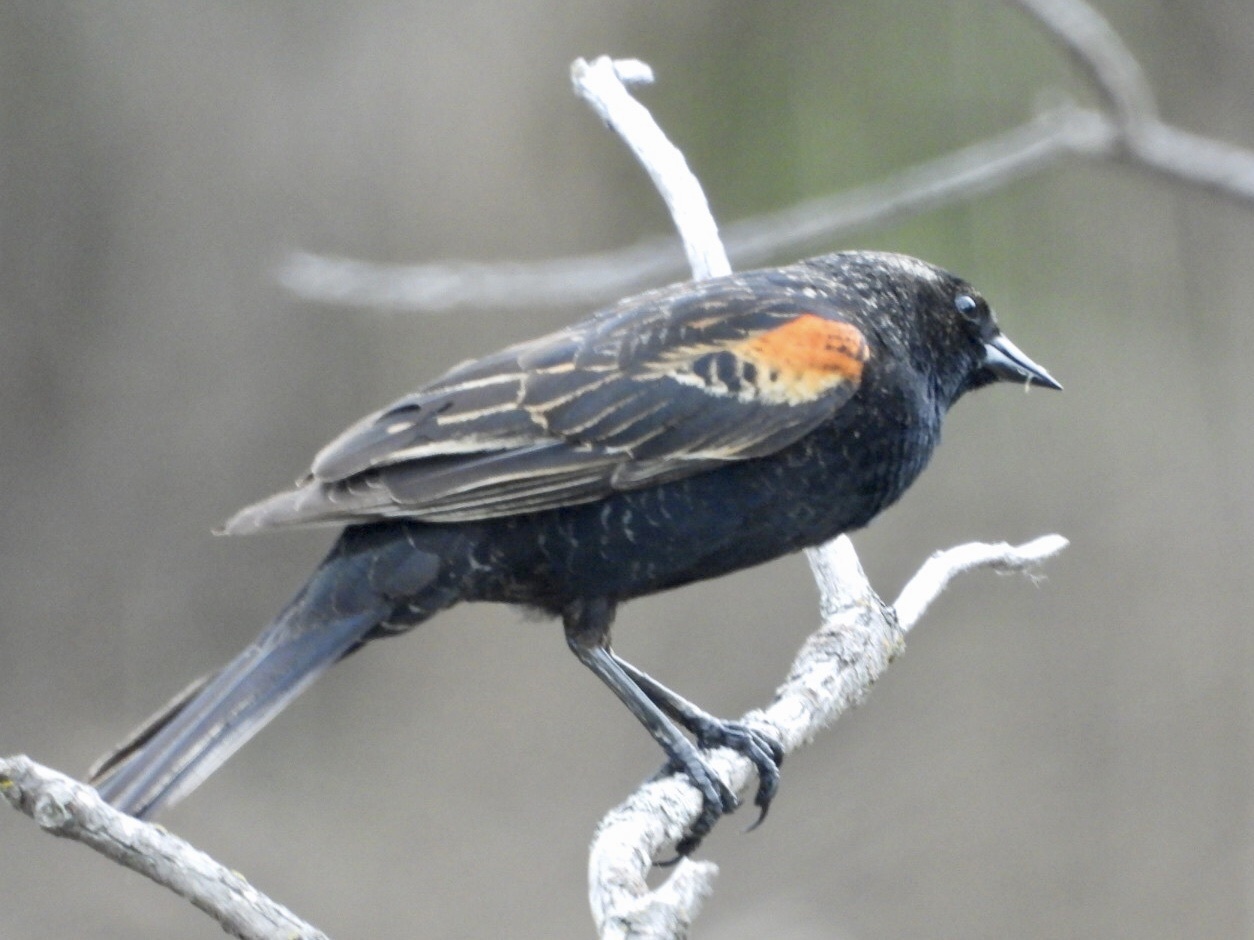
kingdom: Animalia
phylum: Chordata
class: Aves
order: Passeriformes
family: Icteridae
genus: Agelaius
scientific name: Agelaius phoeniceus
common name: Red-winged blackbird
